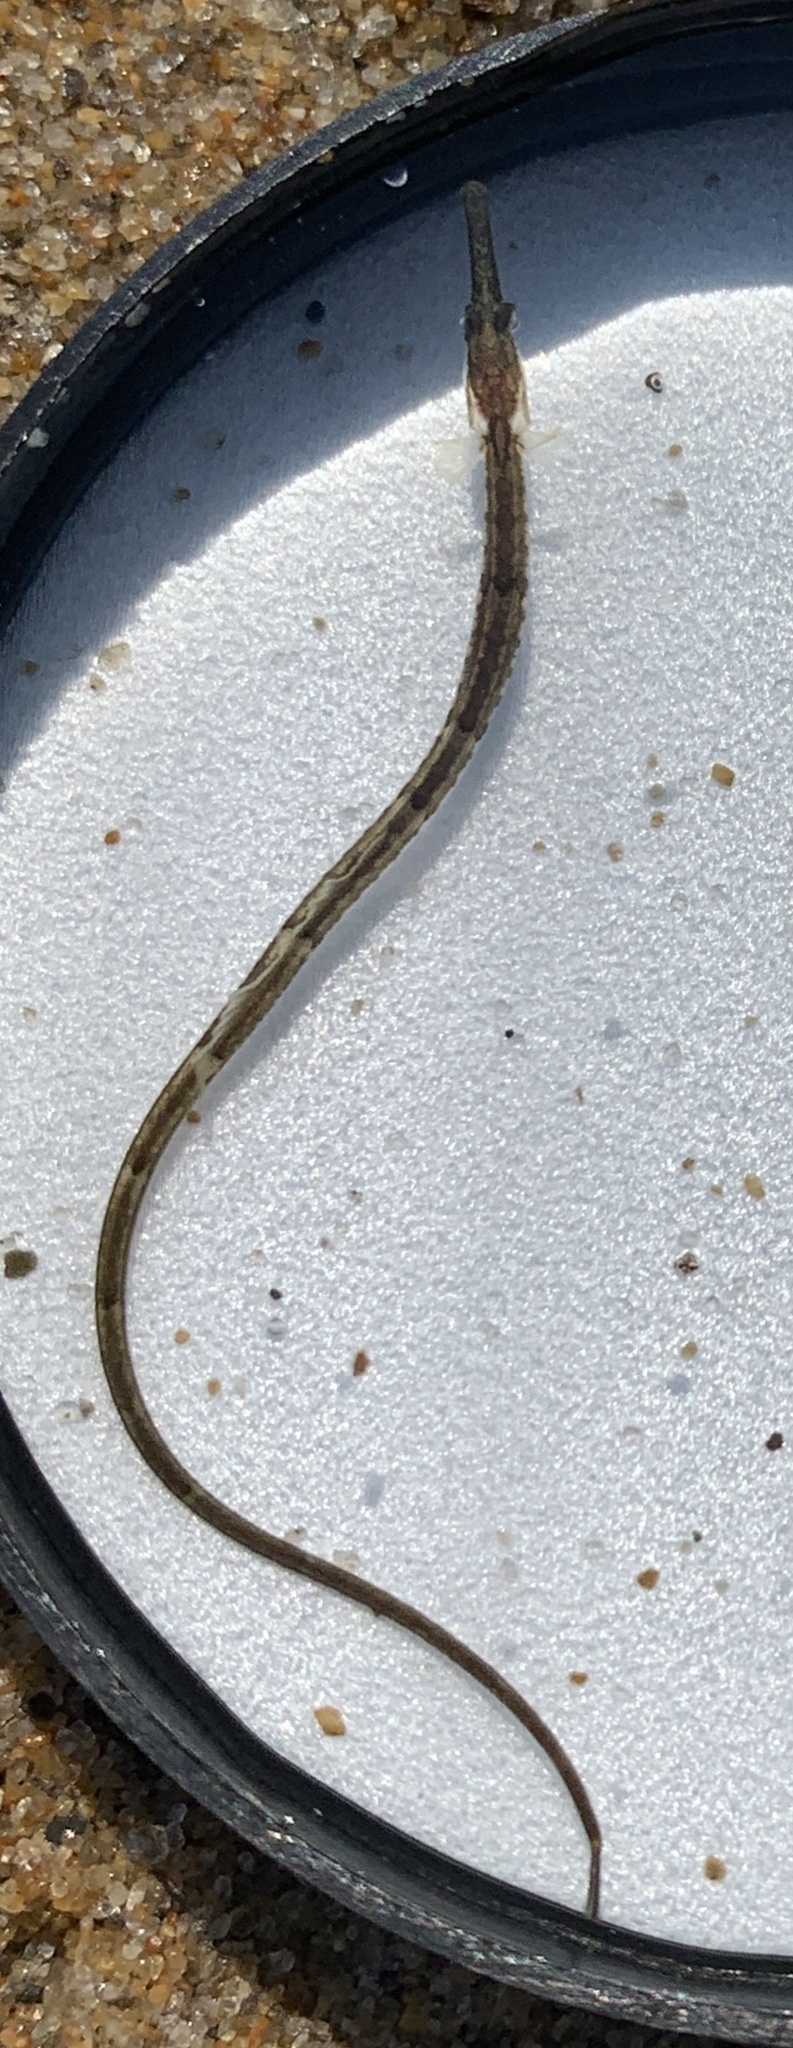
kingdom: Animalia
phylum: Chordata
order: Syngnathiformes
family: Syngnathidae
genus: Syngnathus
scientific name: Syngnathus fuscus
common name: Northern pipefish
